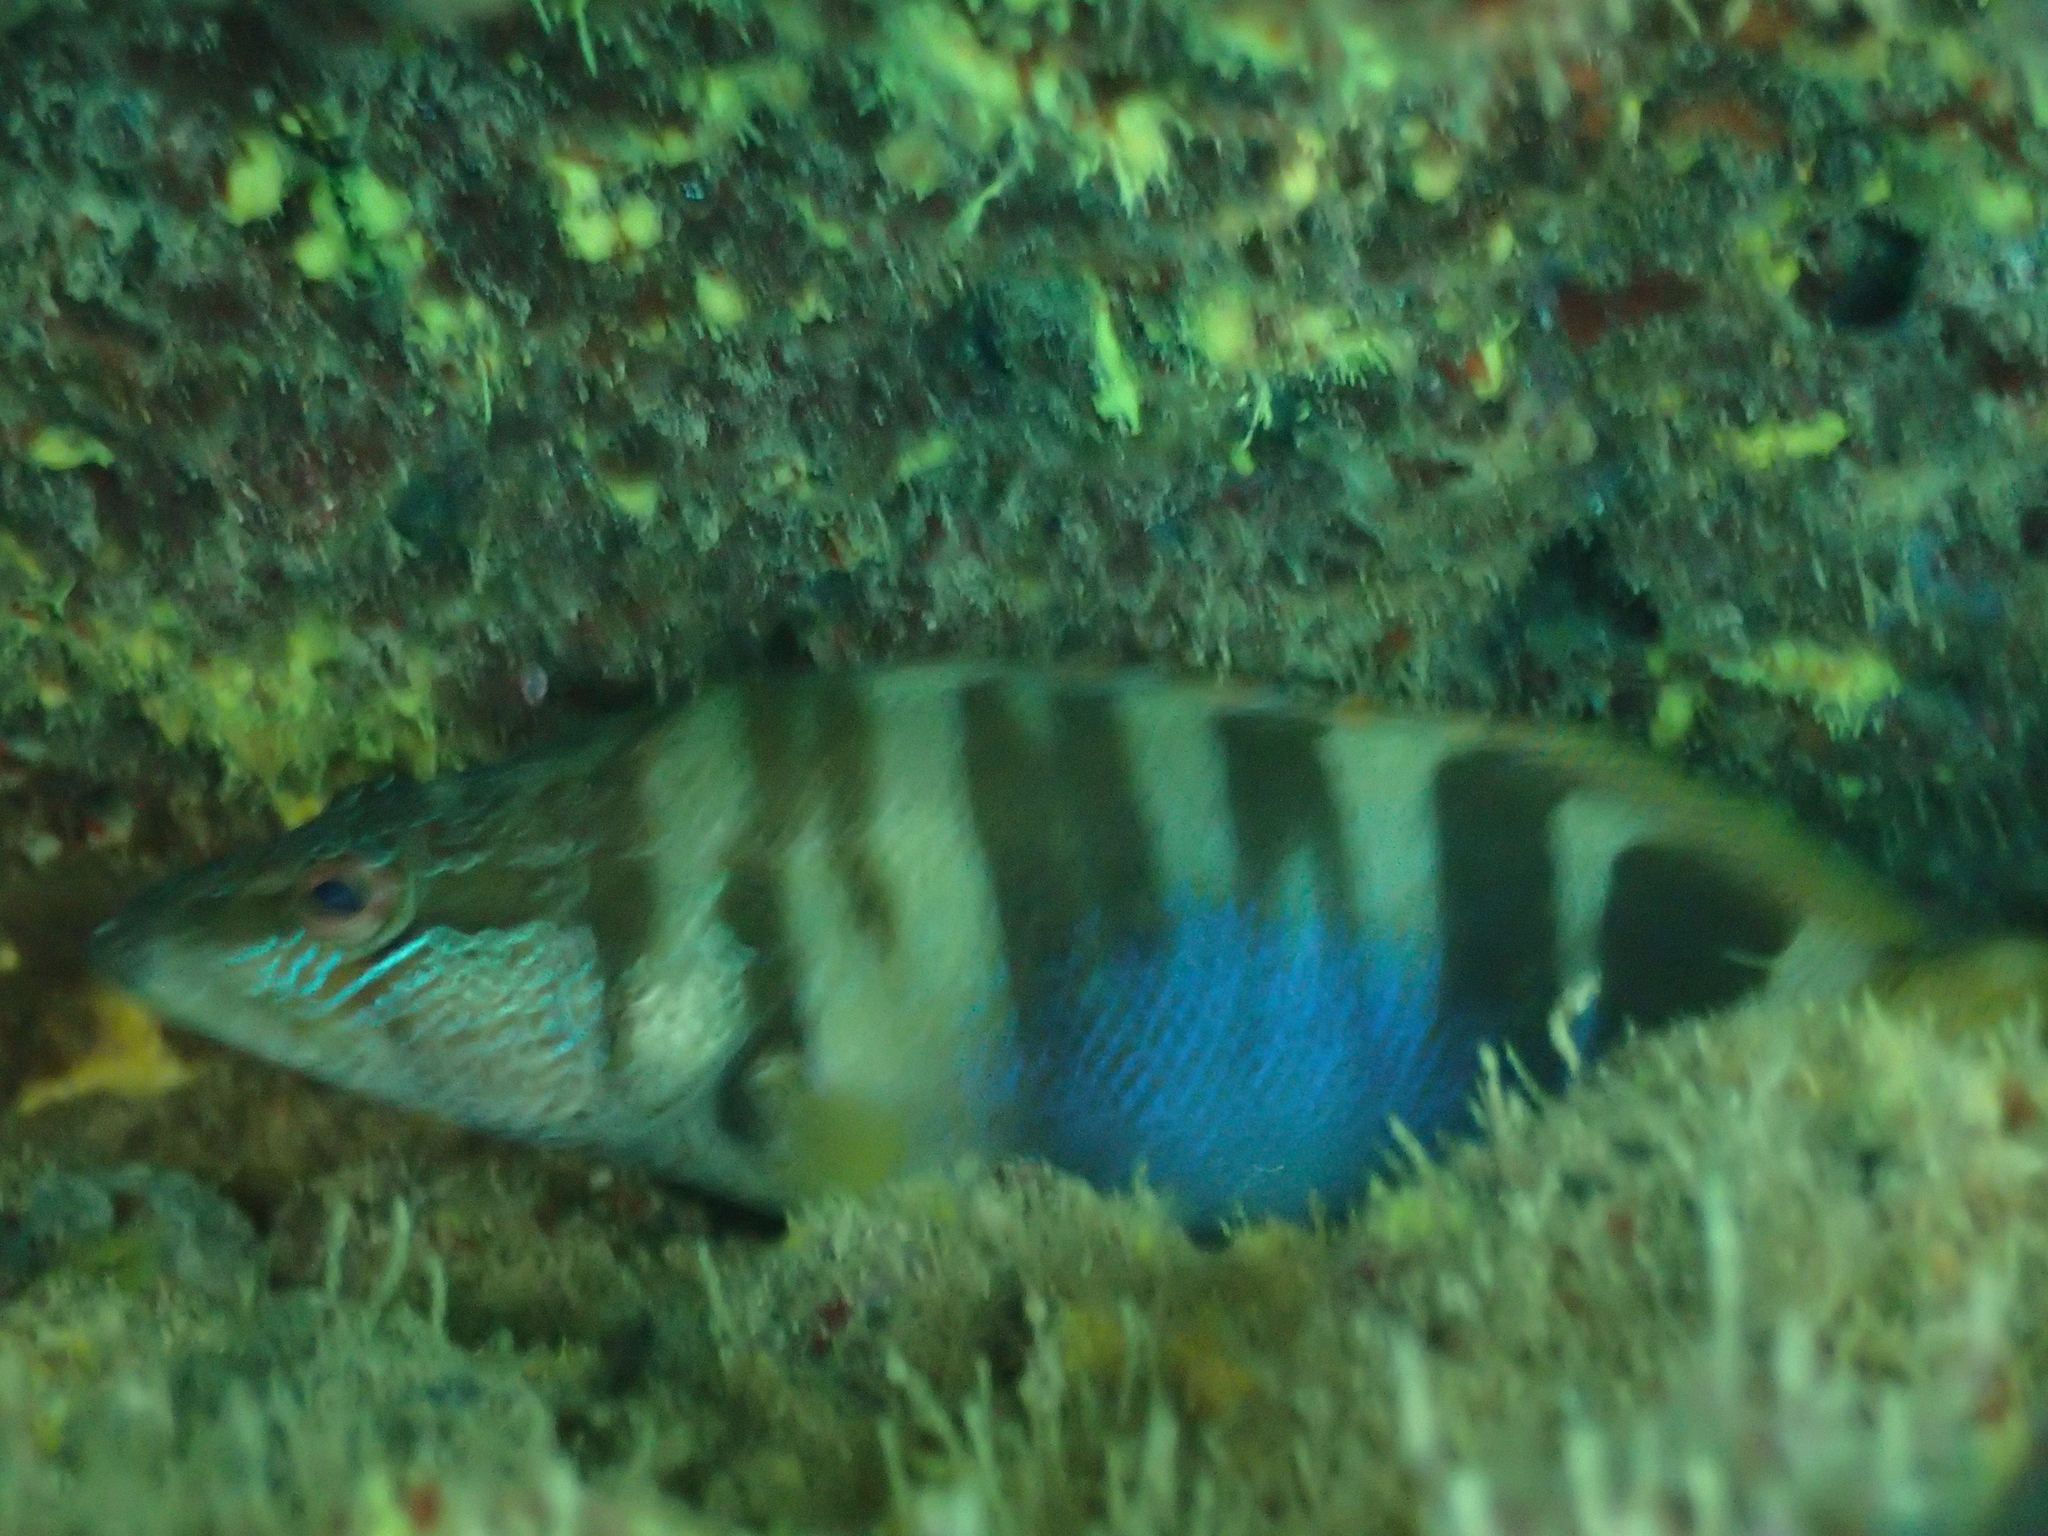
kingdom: Animalia
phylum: Chordata
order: Perciformes
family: Serranidae
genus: Serranus
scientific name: Serranus scriba
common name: Painted comber
